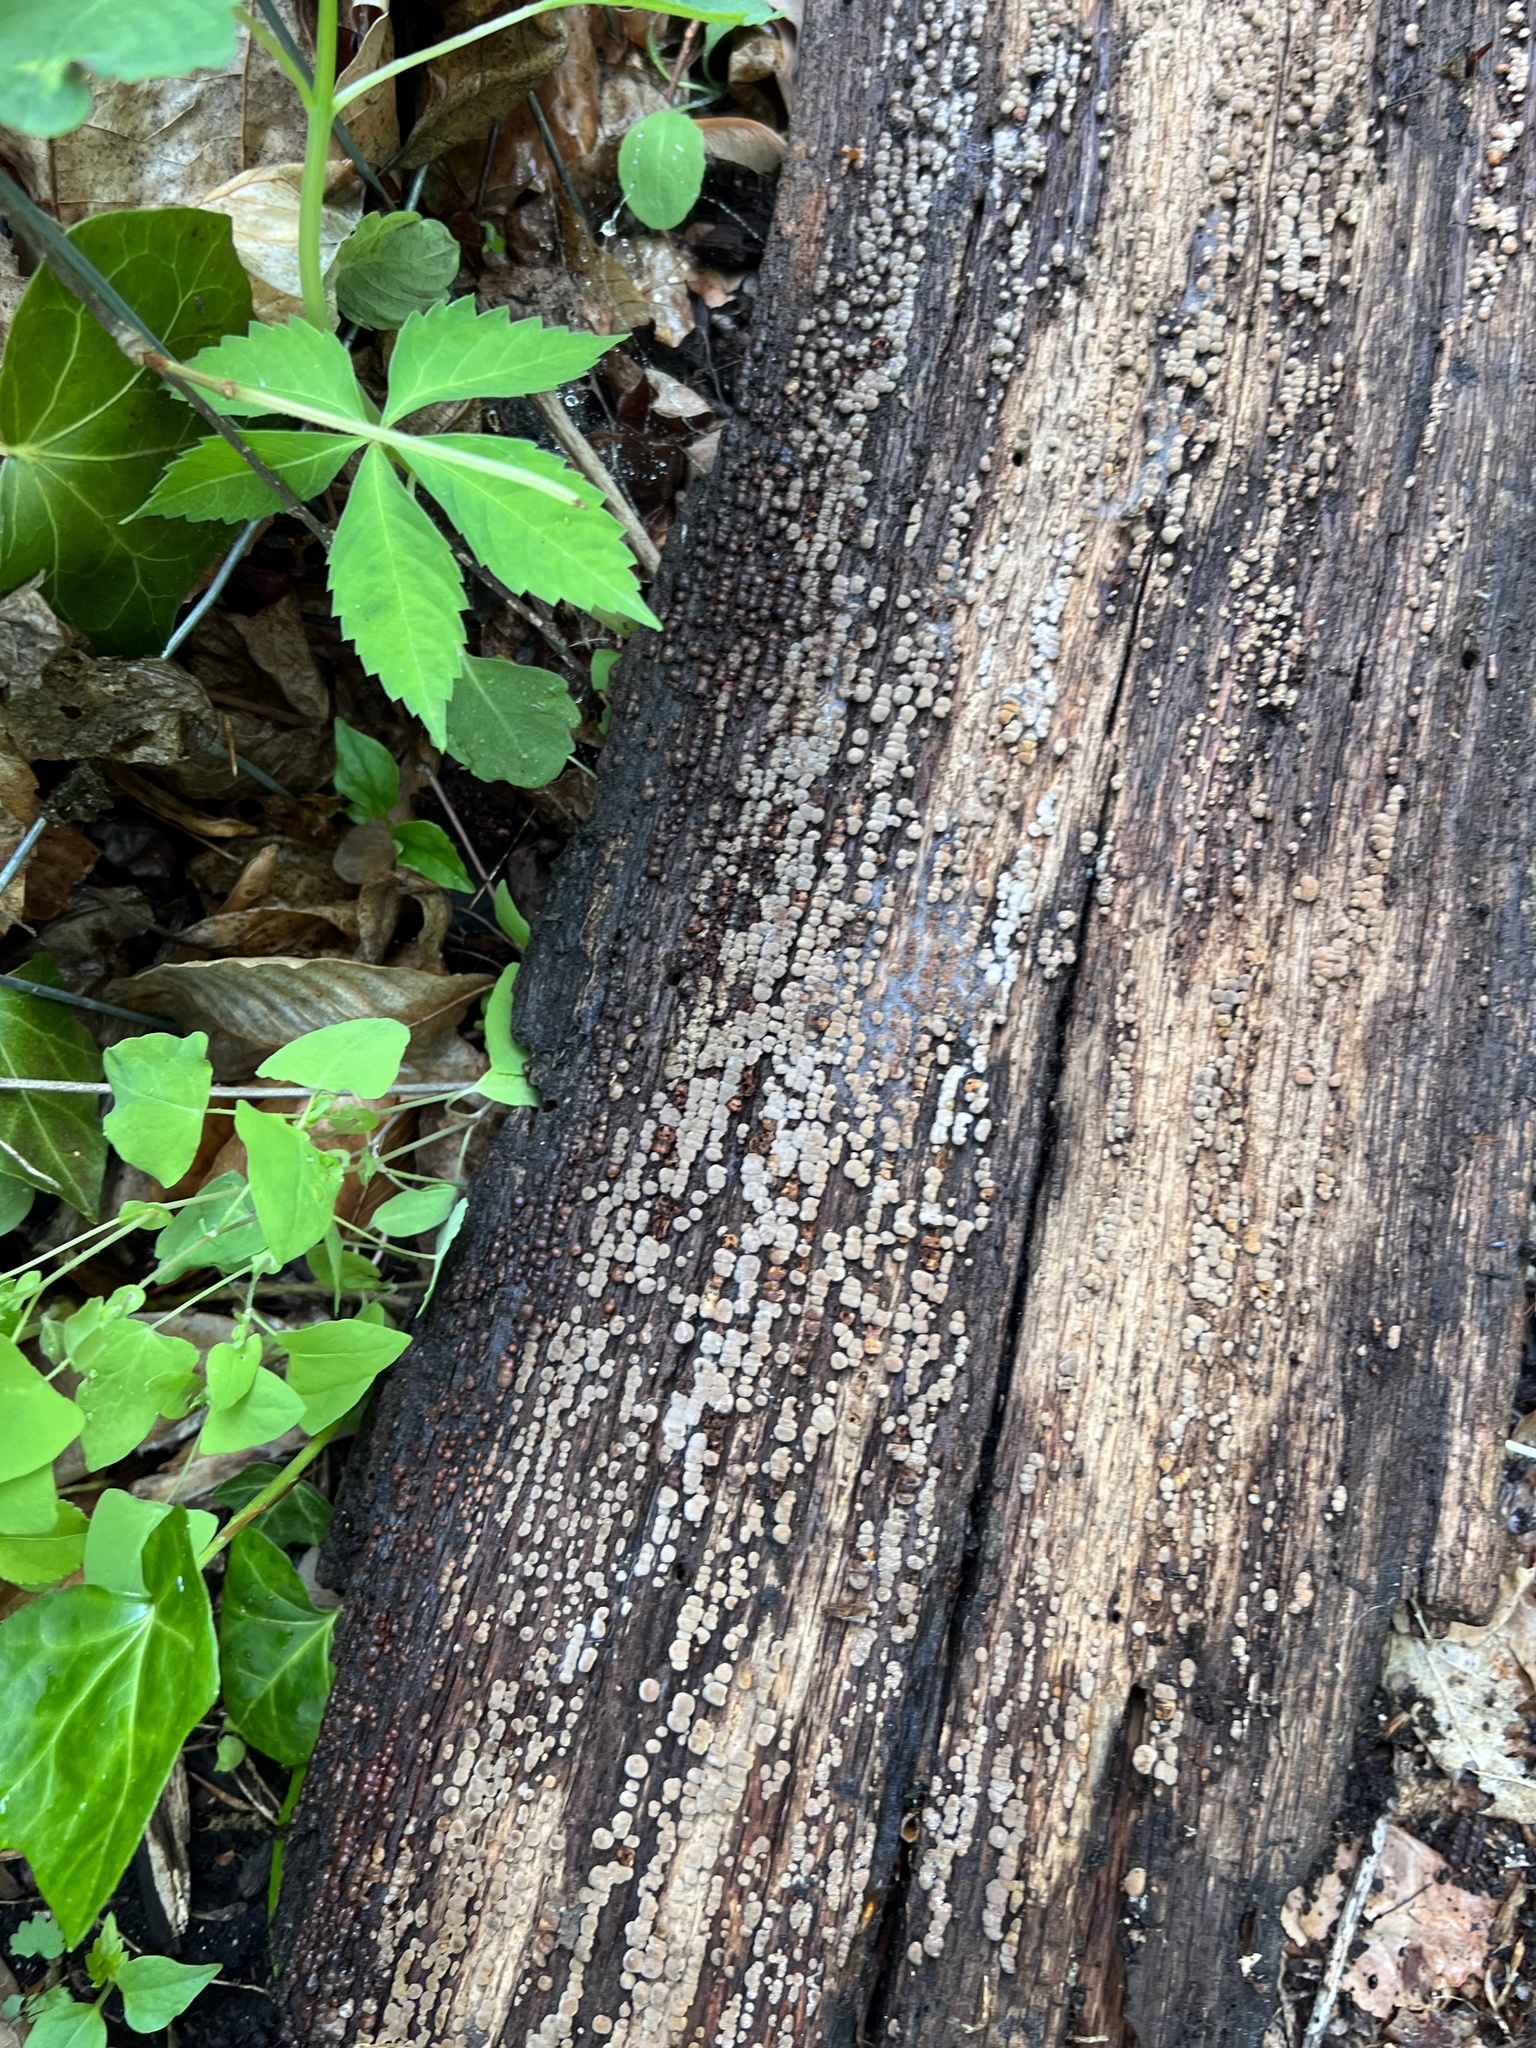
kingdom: Fungi
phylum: Basidiomycota
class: Agaricomycetes
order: Russulales
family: Stereaceae
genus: Xylobolus
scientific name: Xylobolus frustulatus
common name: Ceramic parchment
